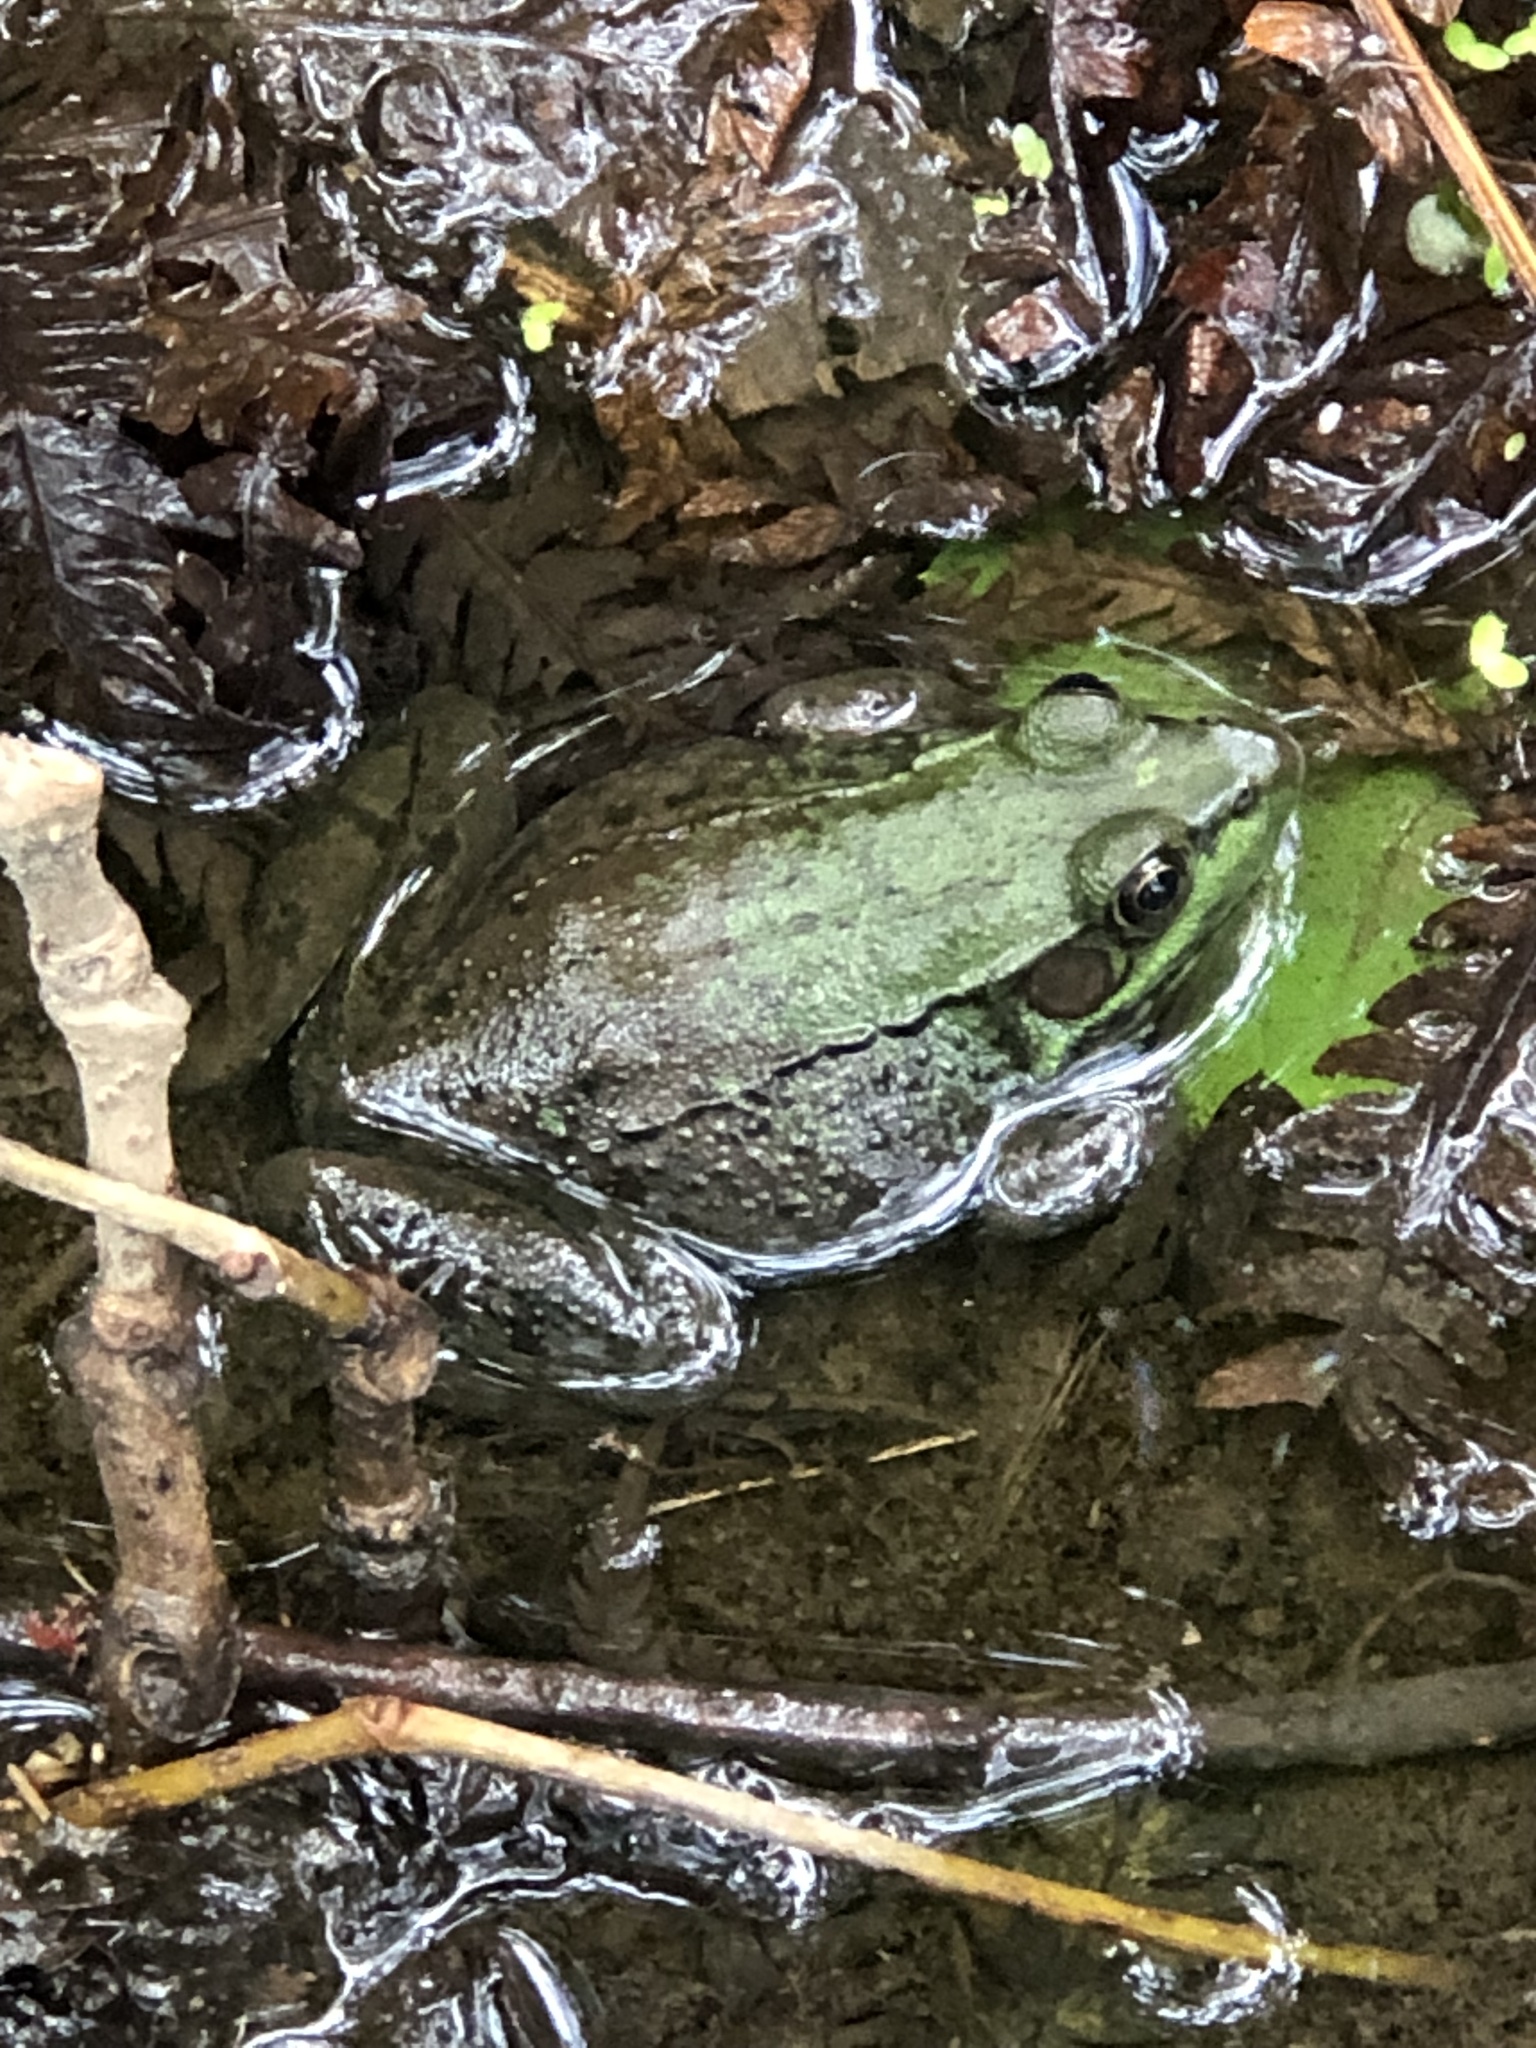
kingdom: Animalia
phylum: Chordata
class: Amphibia
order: Anura
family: Ranidae
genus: Lithobates
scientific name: Lithobates clamitans
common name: Green frog
